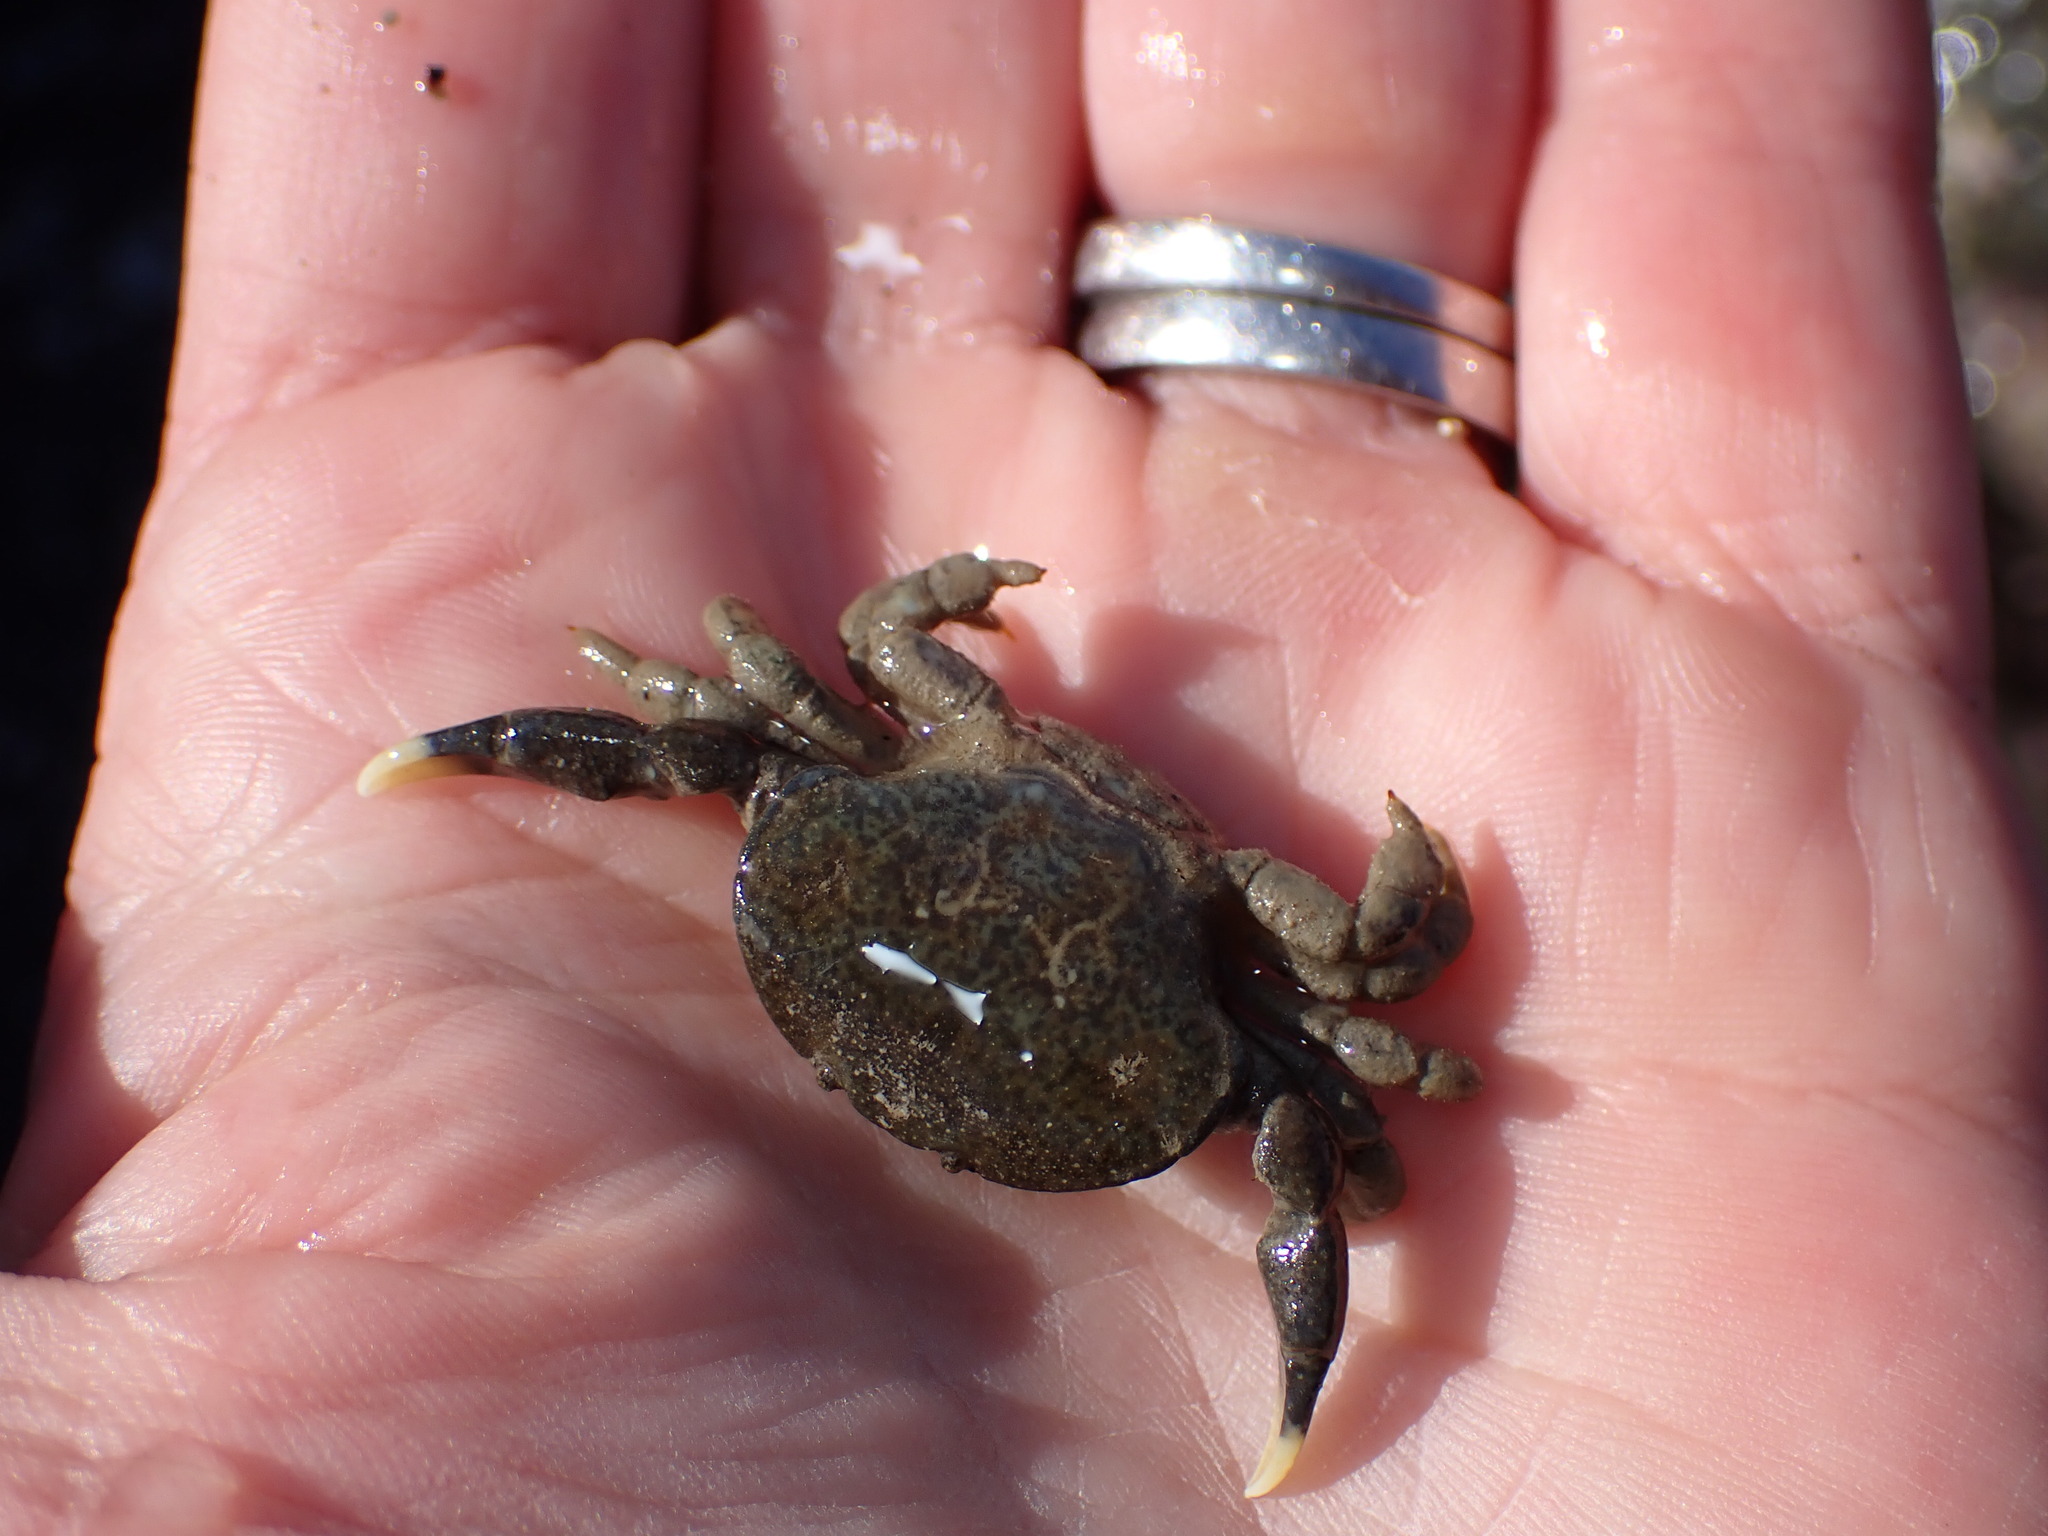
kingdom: Animalia
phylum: Arthropoda
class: Malacostraca
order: Decapoda
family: Heteroziidae
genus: Heterozius
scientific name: Heterozius rotundifrons
